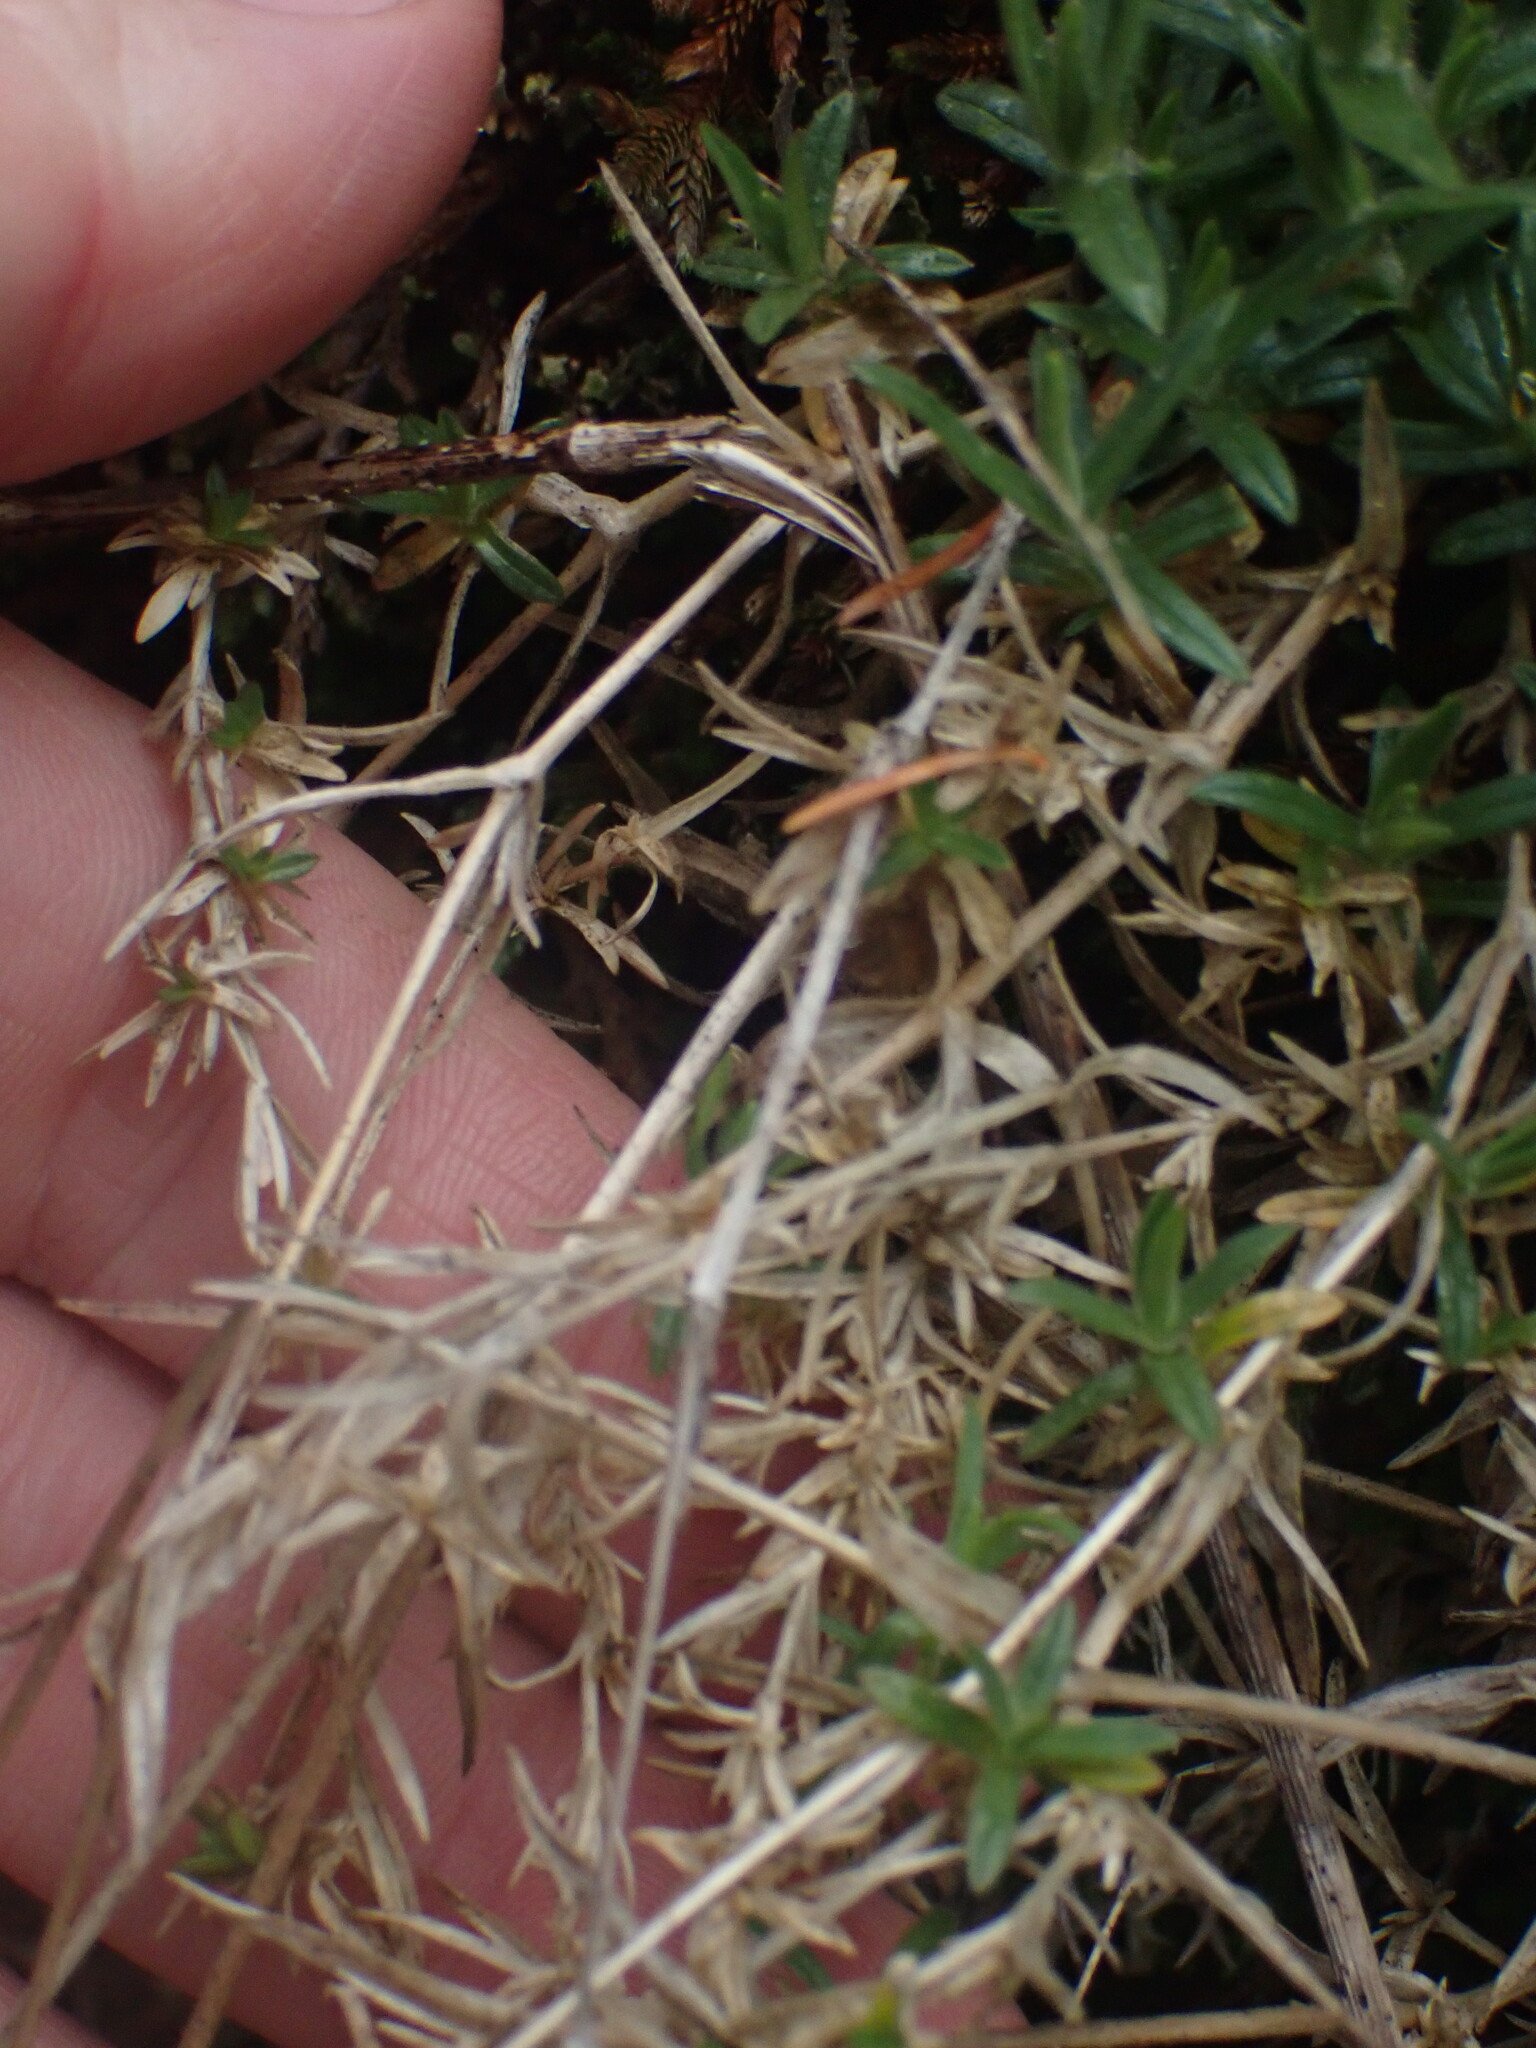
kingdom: Plantae
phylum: Tracheophyta
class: Magnoliopsida
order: Caryophyllales
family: Caryophyllaceae
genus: Cerastium
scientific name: Cerastium arvense
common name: Field mouse-ear
